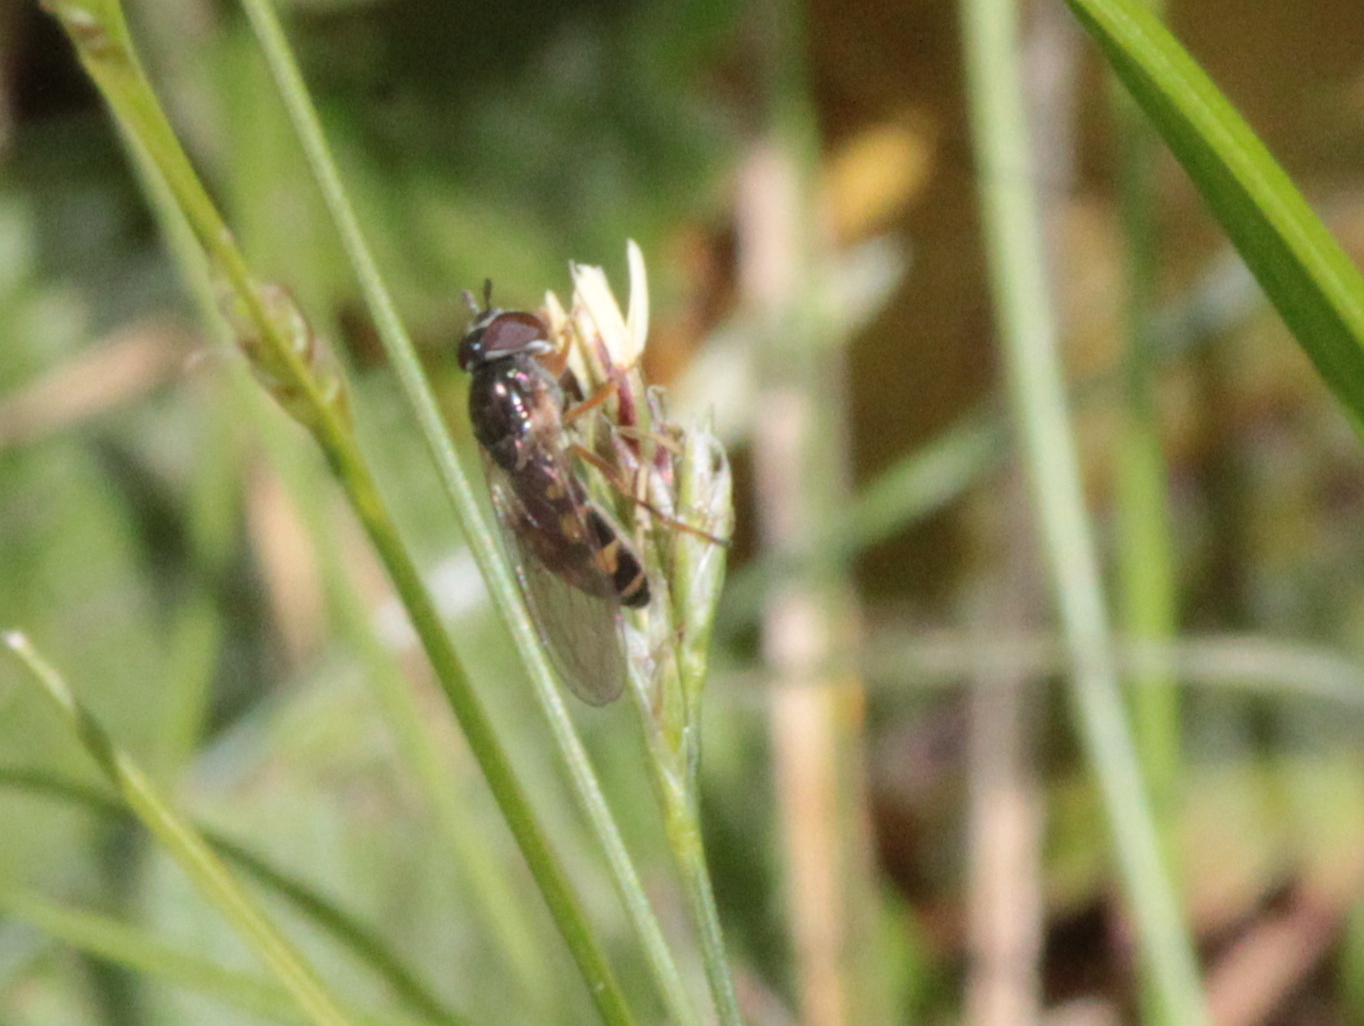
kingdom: Animalia
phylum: Arthropoda
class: Insecta
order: Diptera
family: Syrphidae
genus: Melanostoma
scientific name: Melanostoma mellina
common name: Hover fly
